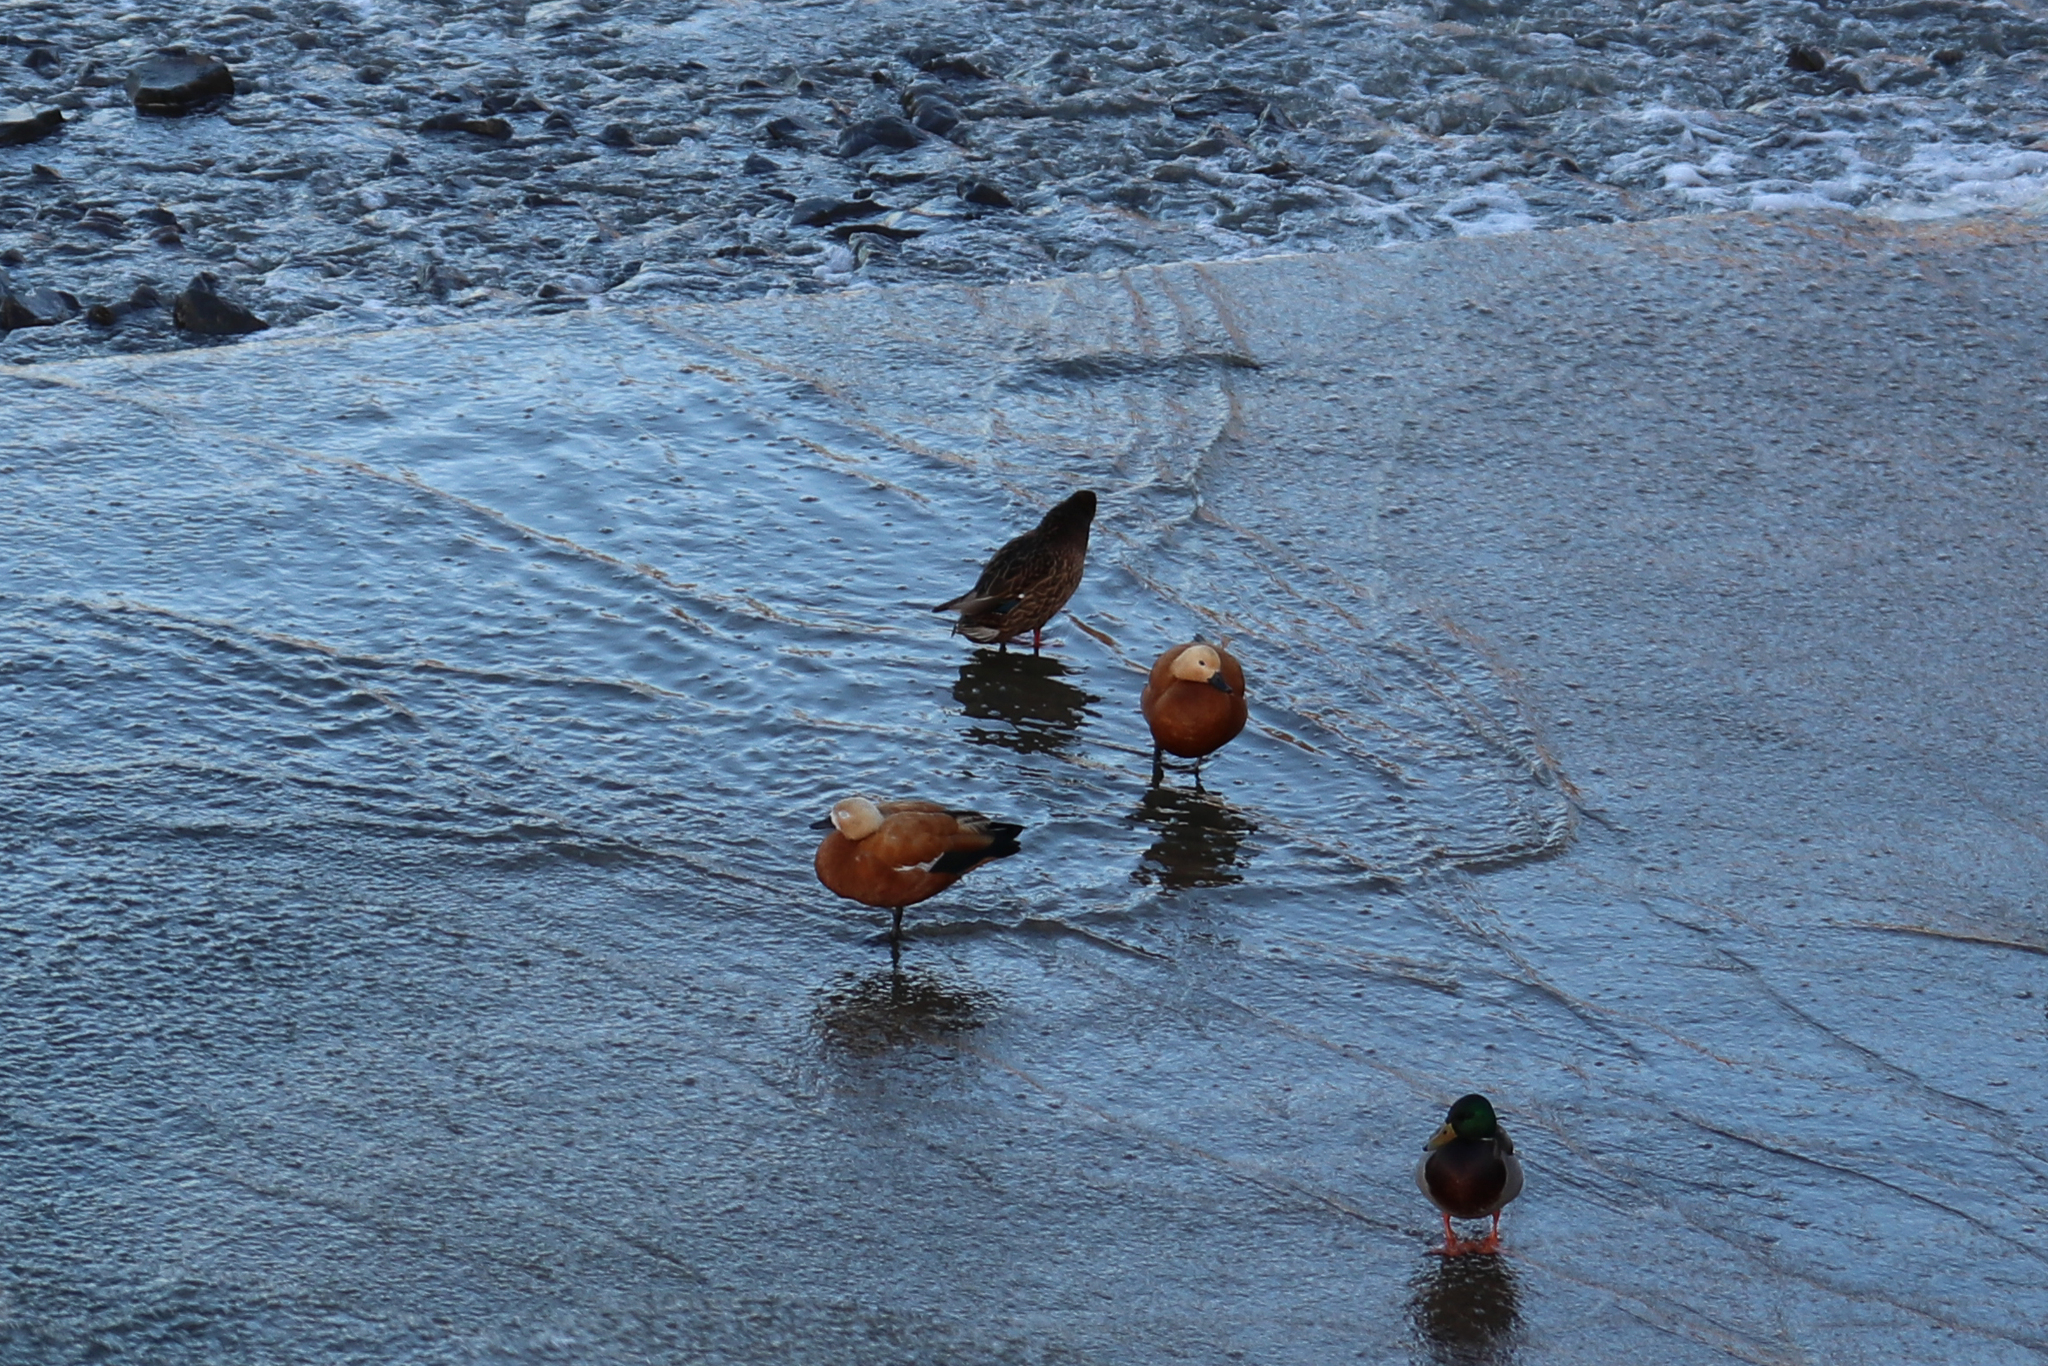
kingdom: Animalia
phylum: Chordata
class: Aves
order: Anseriformes
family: Anatidae
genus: Tadorna
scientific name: Tadorna ferruginea
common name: Ruddy shelduck
